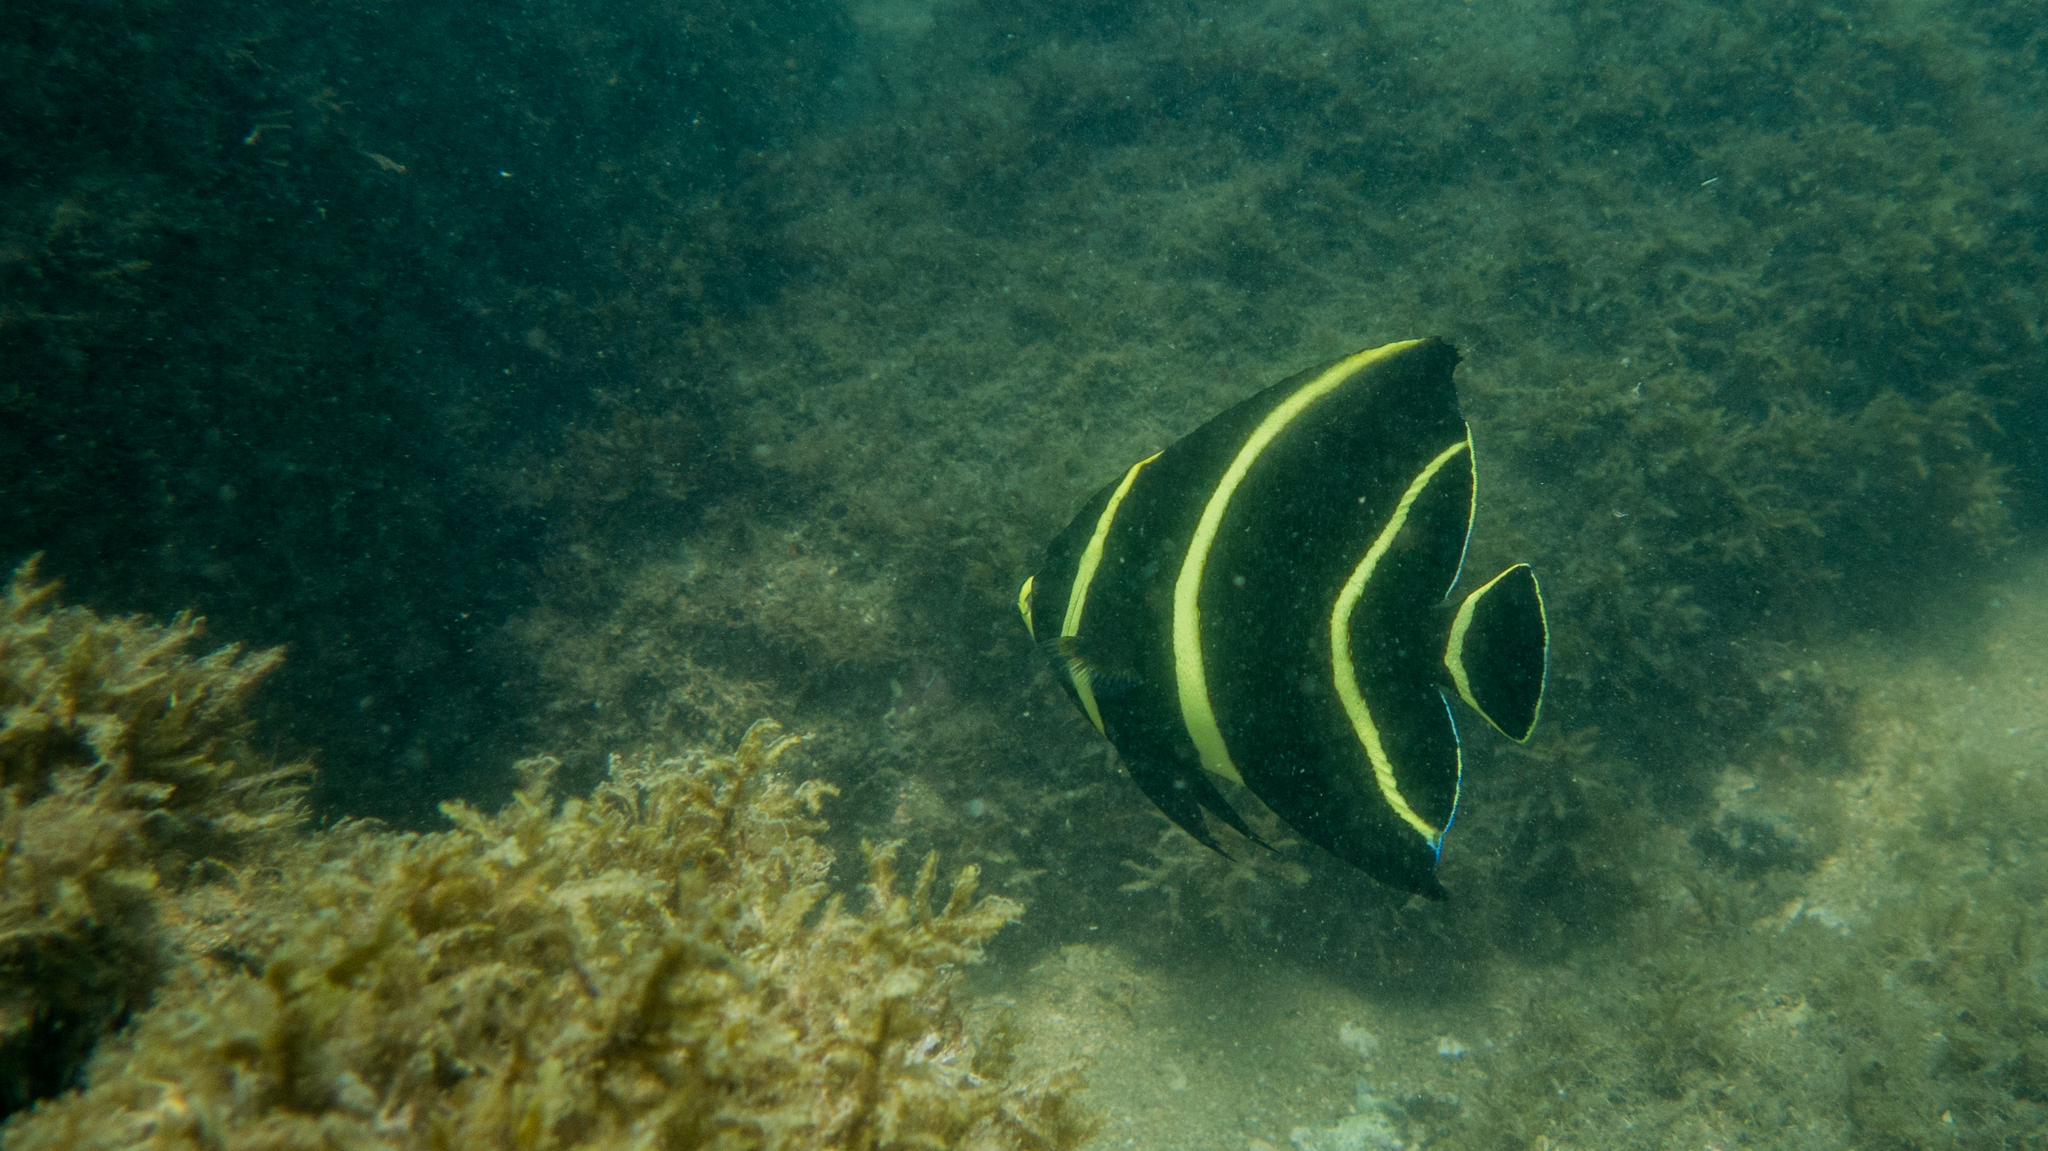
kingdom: Animalia
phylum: Chordata
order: Perciformes
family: Pomacanthidae
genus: Pomacanthus
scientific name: Pomacanthus paru
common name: French angelfish
